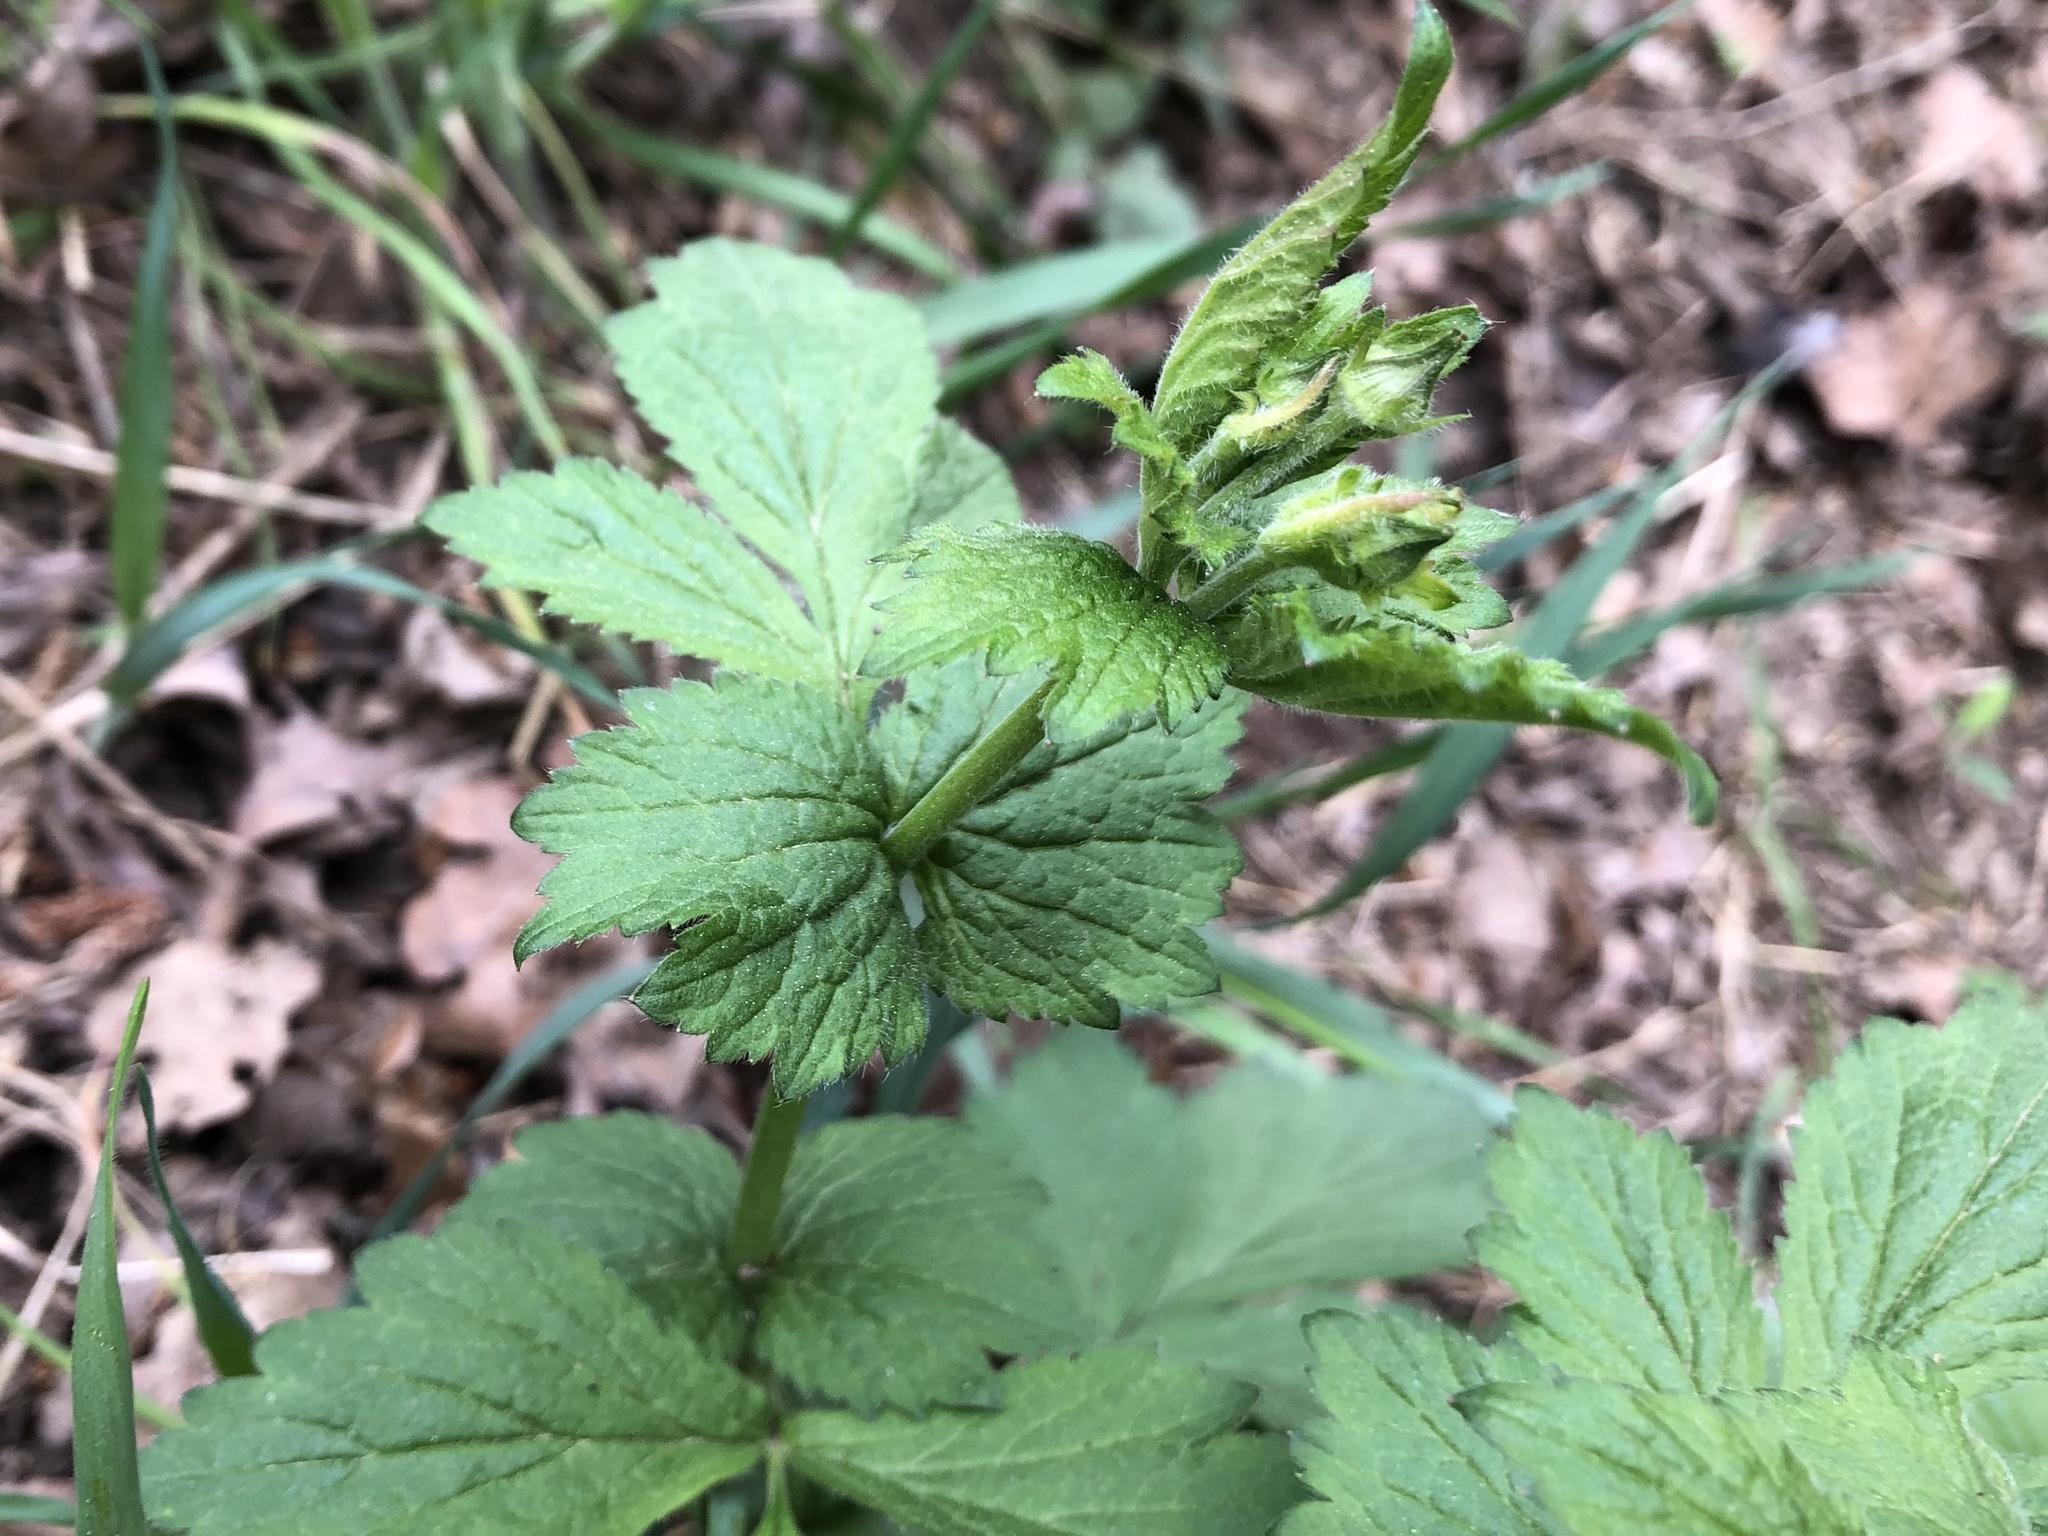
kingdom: Plantae
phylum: Tracheophyta
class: Magnoliopsida
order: Rosales
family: Rosaceae
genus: Geum
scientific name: Geum urbanum
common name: Wood avens
